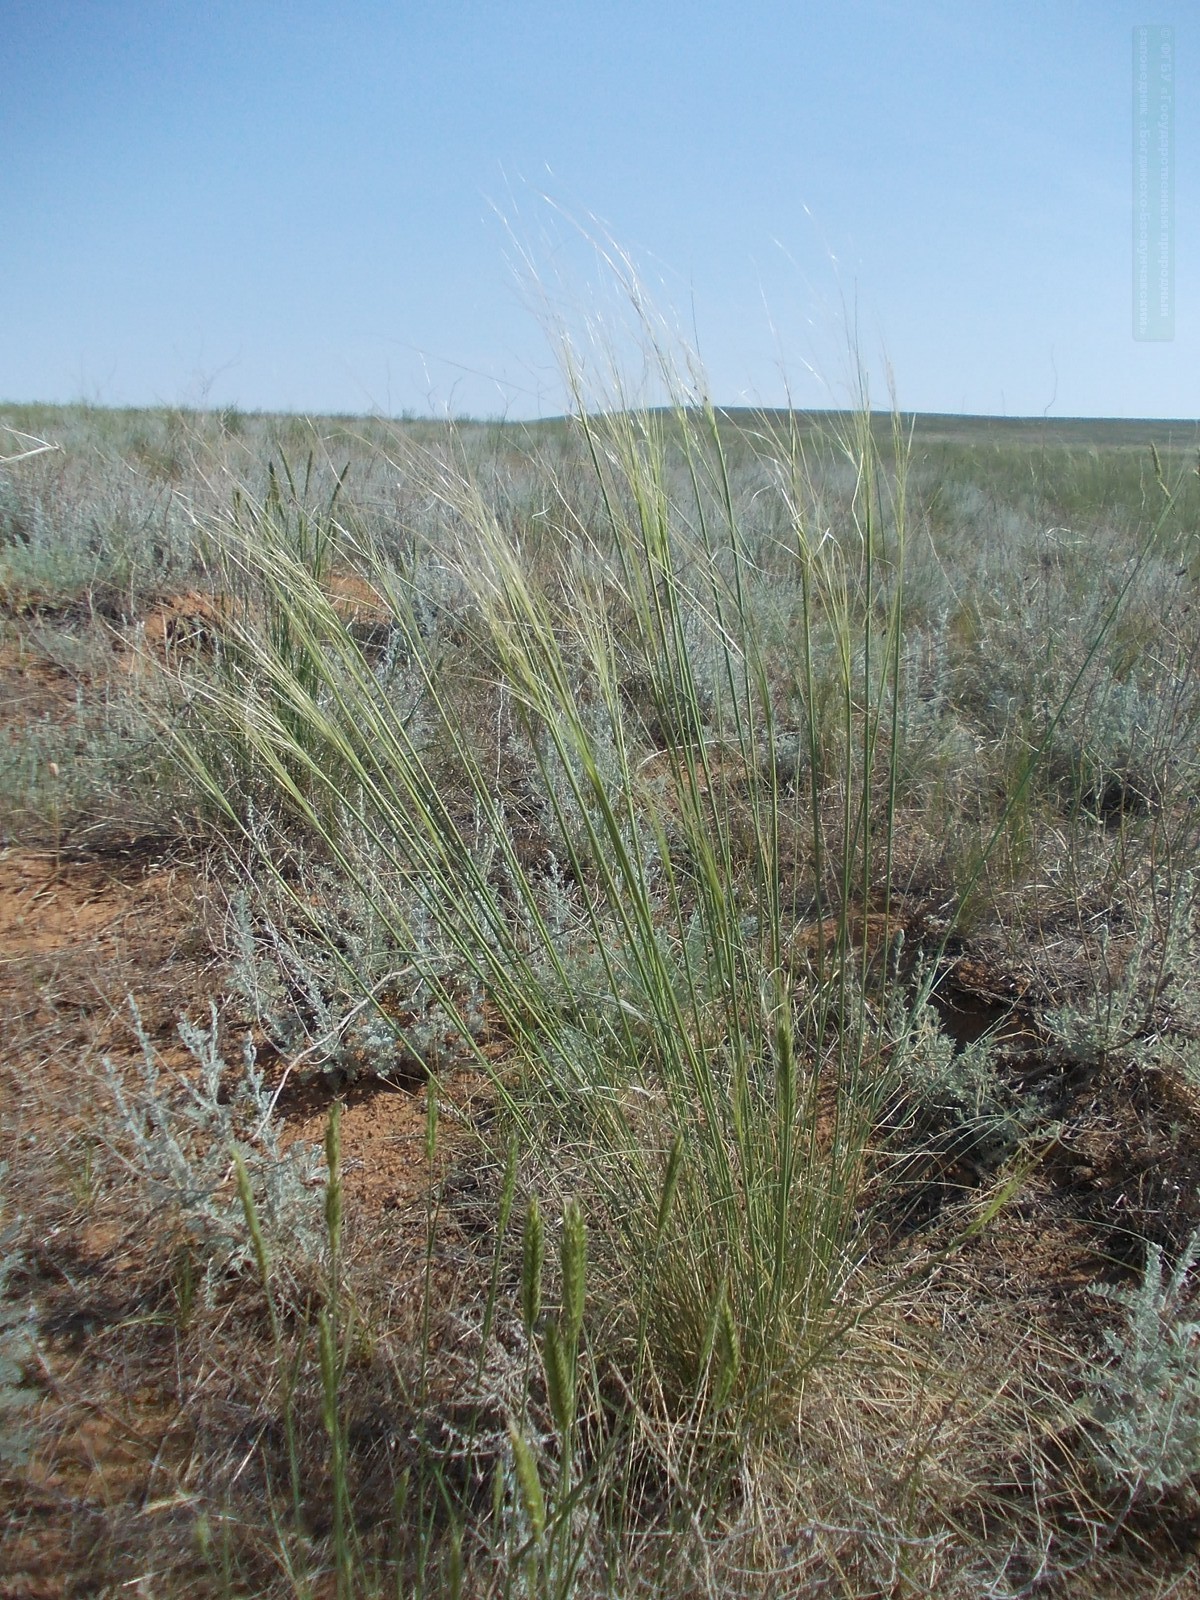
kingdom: Plantae
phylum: Tracheophyta
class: Liliopsida
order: Poales
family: Poaceae
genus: Stipa
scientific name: Stipa sareptana
